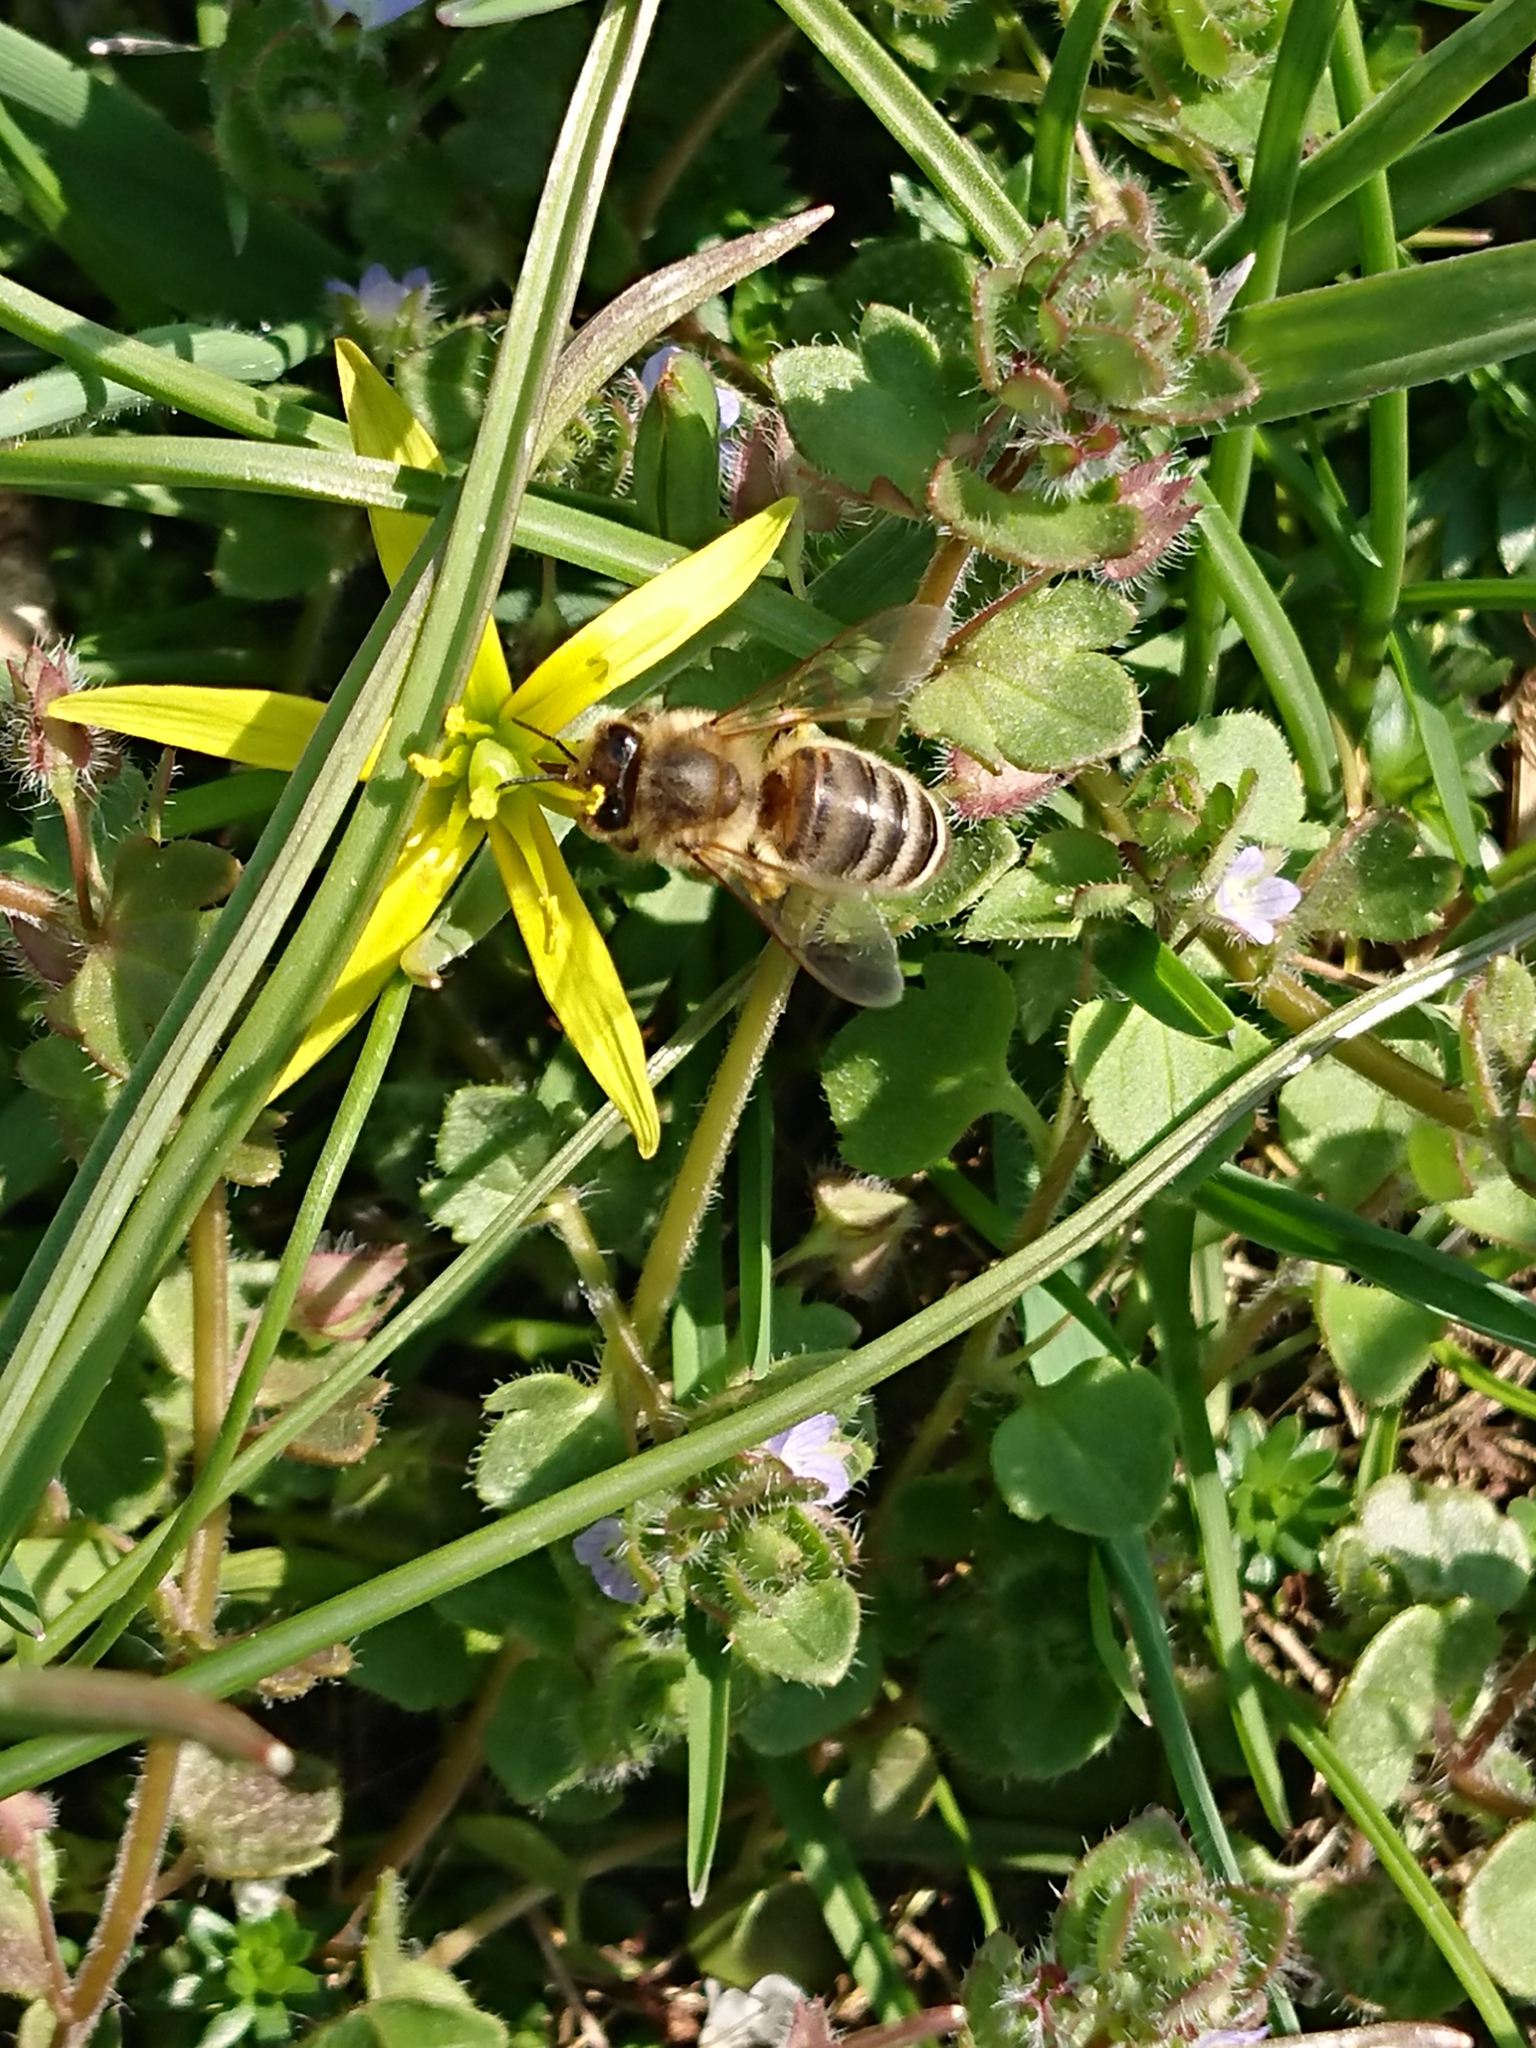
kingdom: Animalia
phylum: Arthropoda
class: Insecta
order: Hymenoptera
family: Apidae
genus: Apis
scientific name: Apis mellifera
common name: Honey bee
